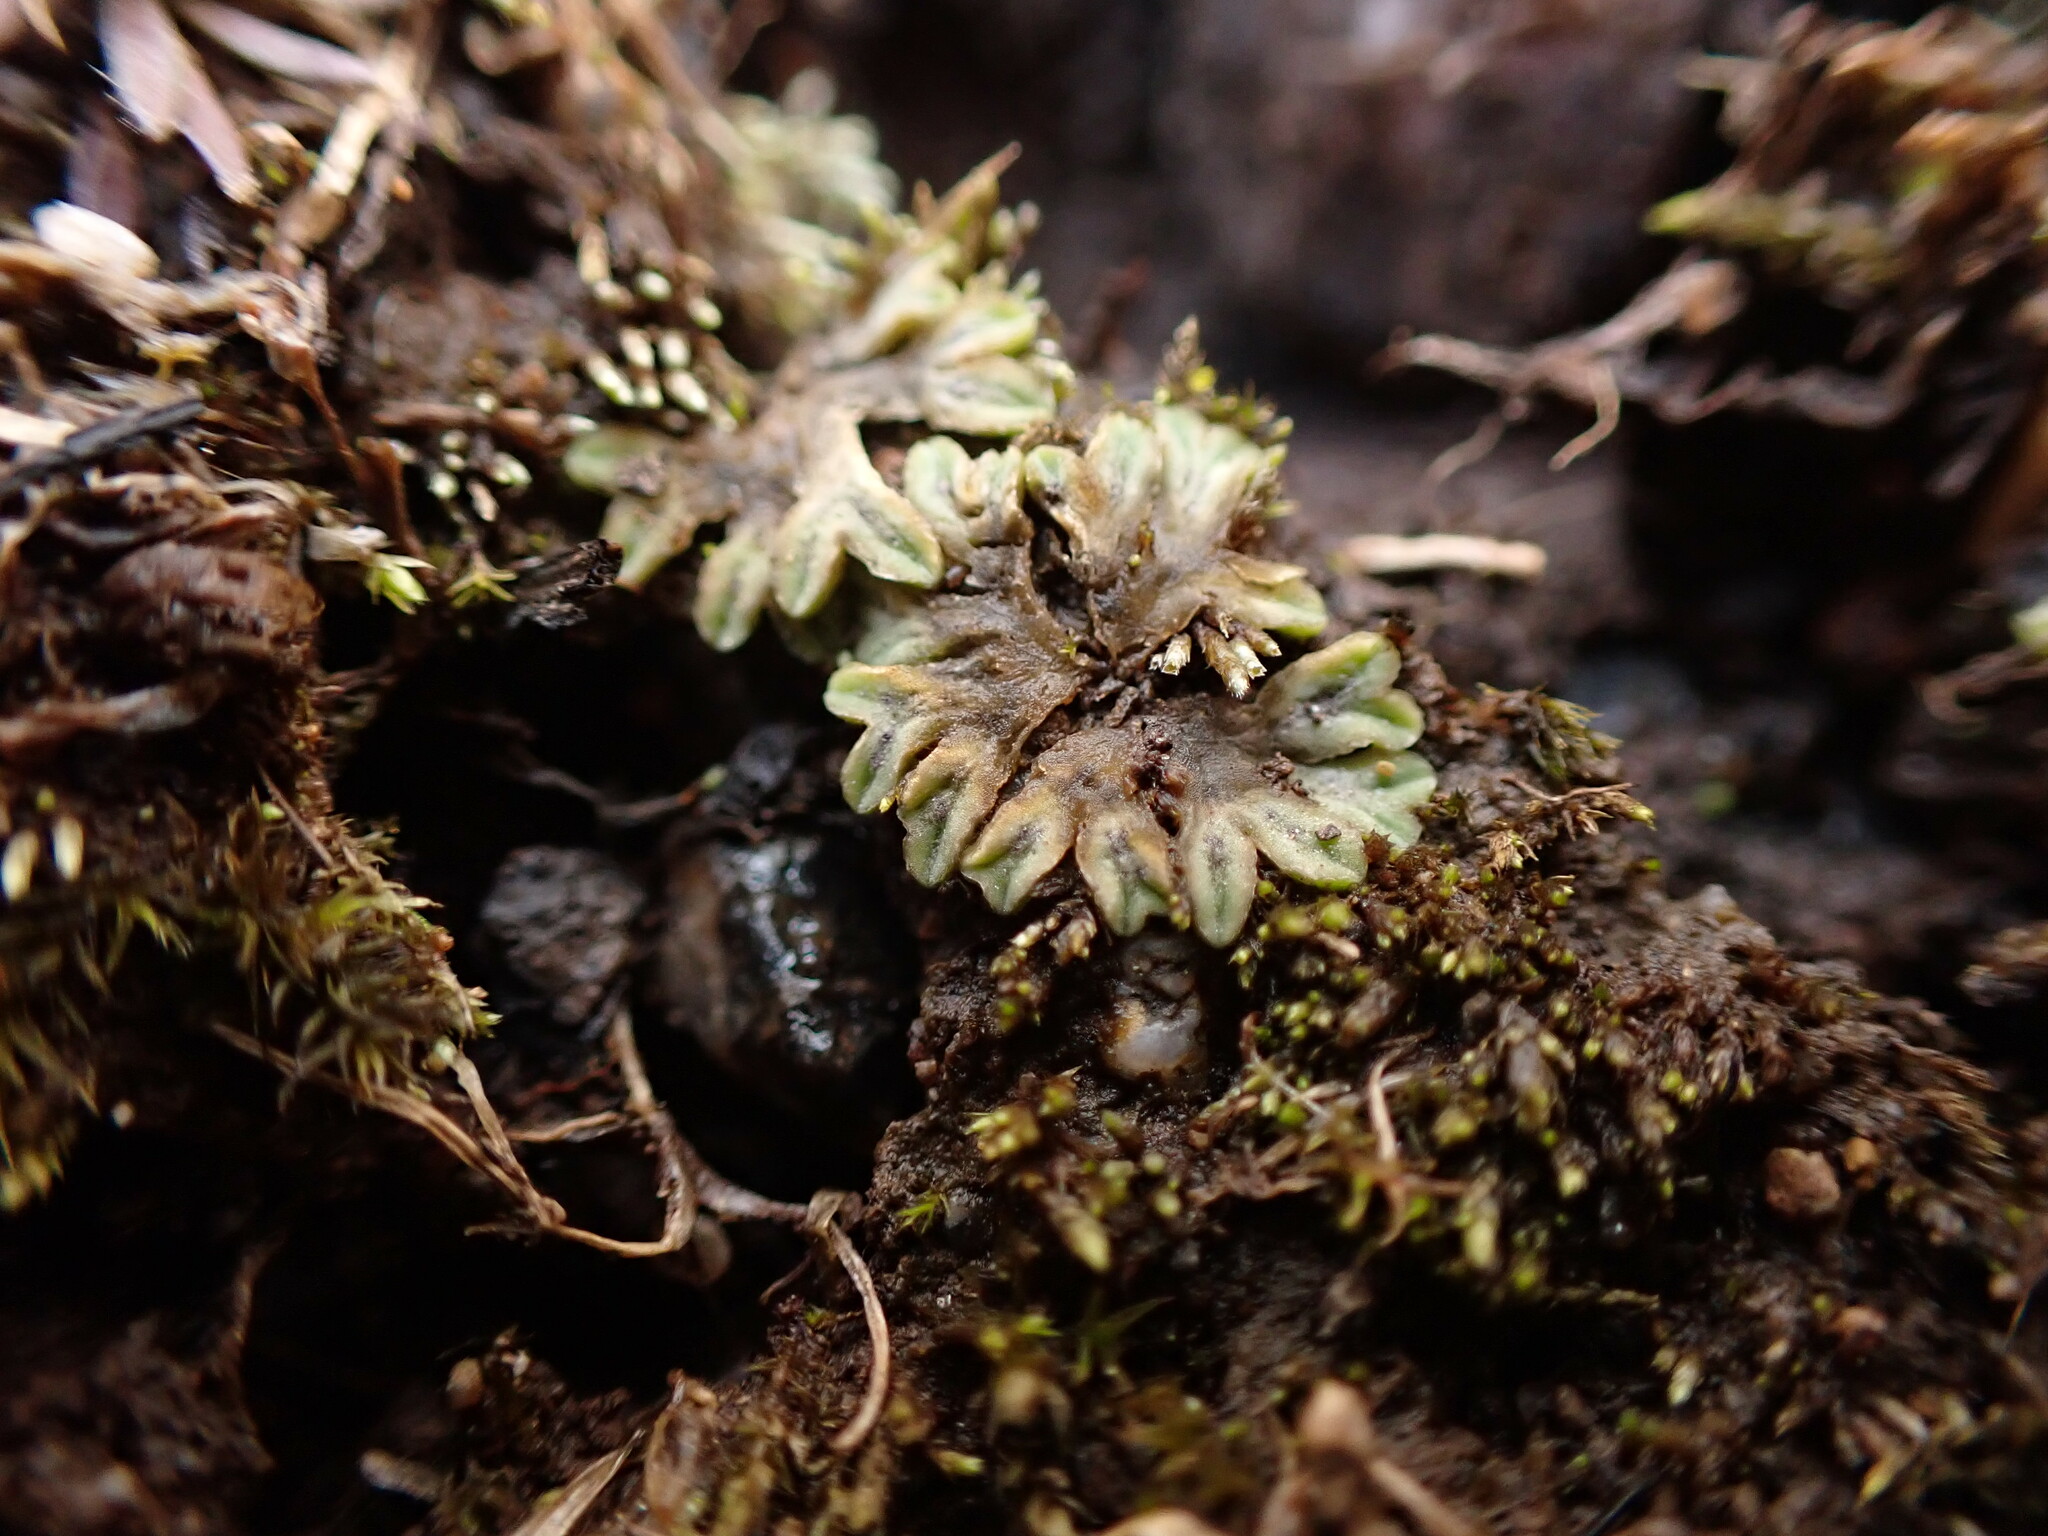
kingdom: Plantae
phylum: Marchantiophyta
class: Marchantiopsida
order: Marchantiales
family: Ricciaceae
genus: Riccia
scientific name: Riccia sorocarpa
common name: Common crystalwort
